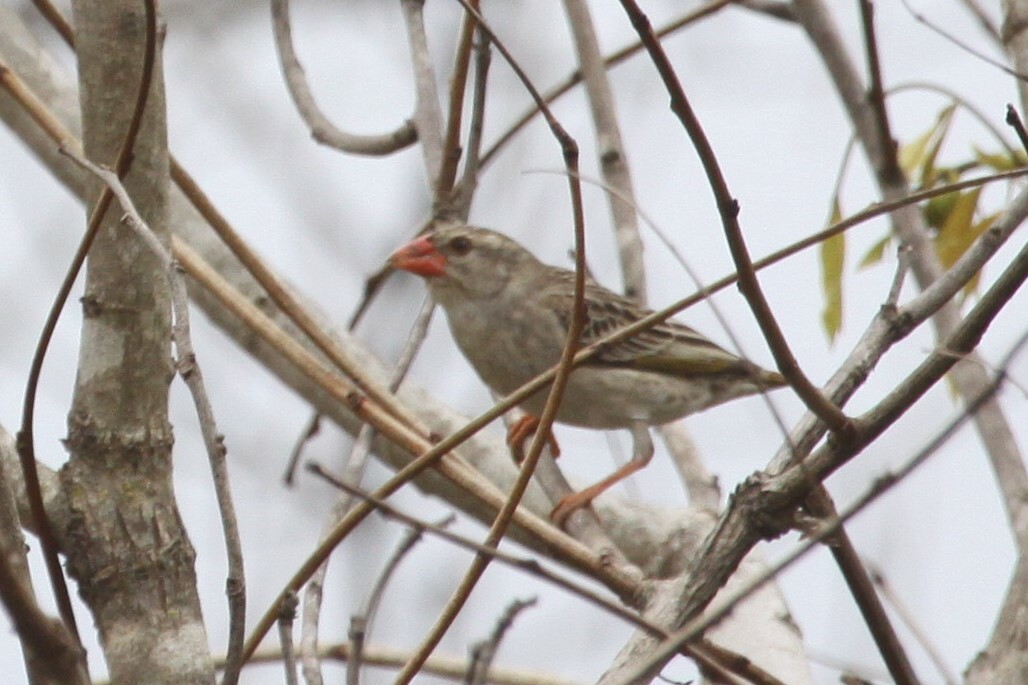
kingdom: Animalia
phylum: Chordata
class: Aves
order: Passeriformes
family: Ploceidae
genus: Quelea
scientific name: Quelea quelea
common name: Red-billed quelea
